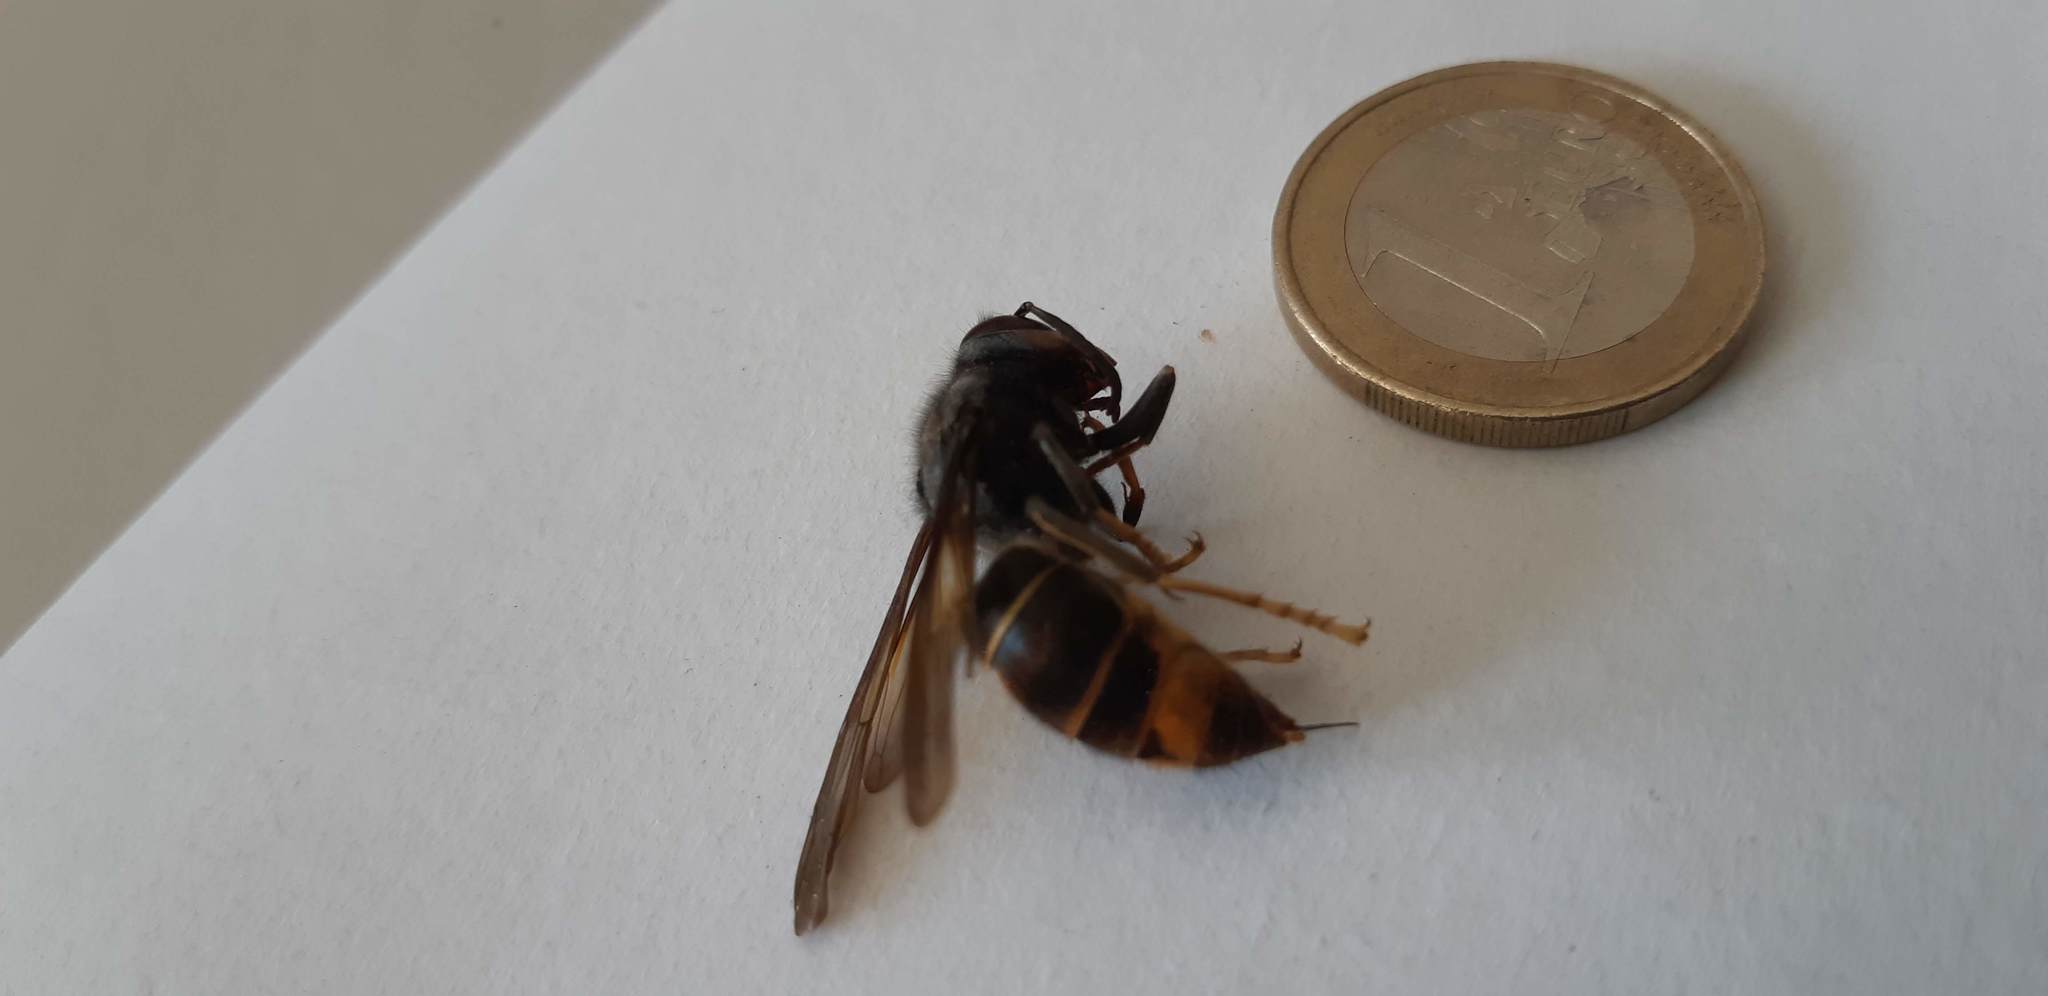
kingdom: Animalia
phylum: Arthropoda
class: Insecta
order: Hymenoptera
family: Vespidae
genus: Vespa
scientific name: Vespa velutina
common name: Asian hornet
